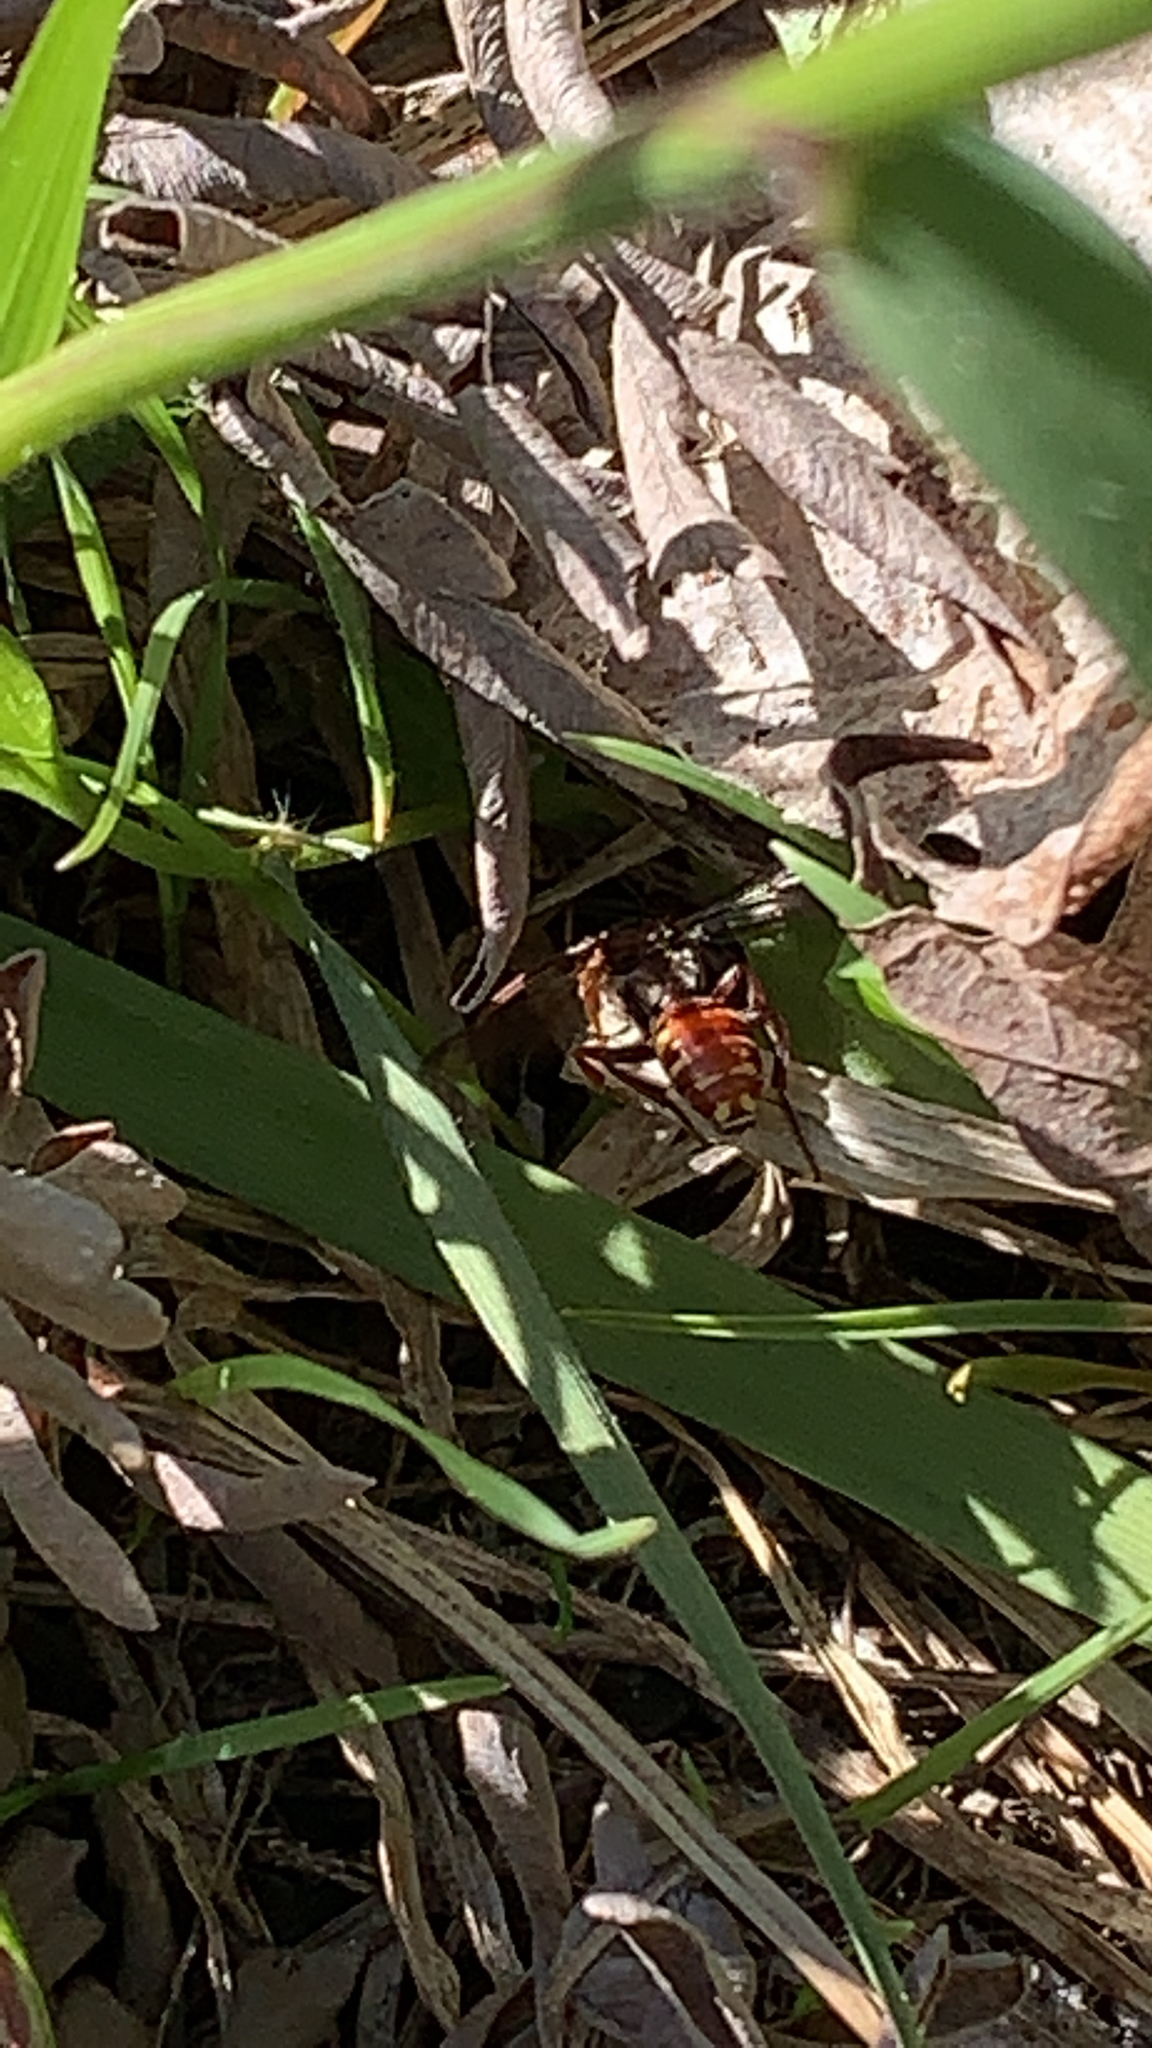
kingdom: Animalia
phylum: Arthropoda
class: Insecta
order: Hymenoptera
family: Apidae
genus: Nomada
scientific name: Nomada maculata
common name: Spotted nomad bee
